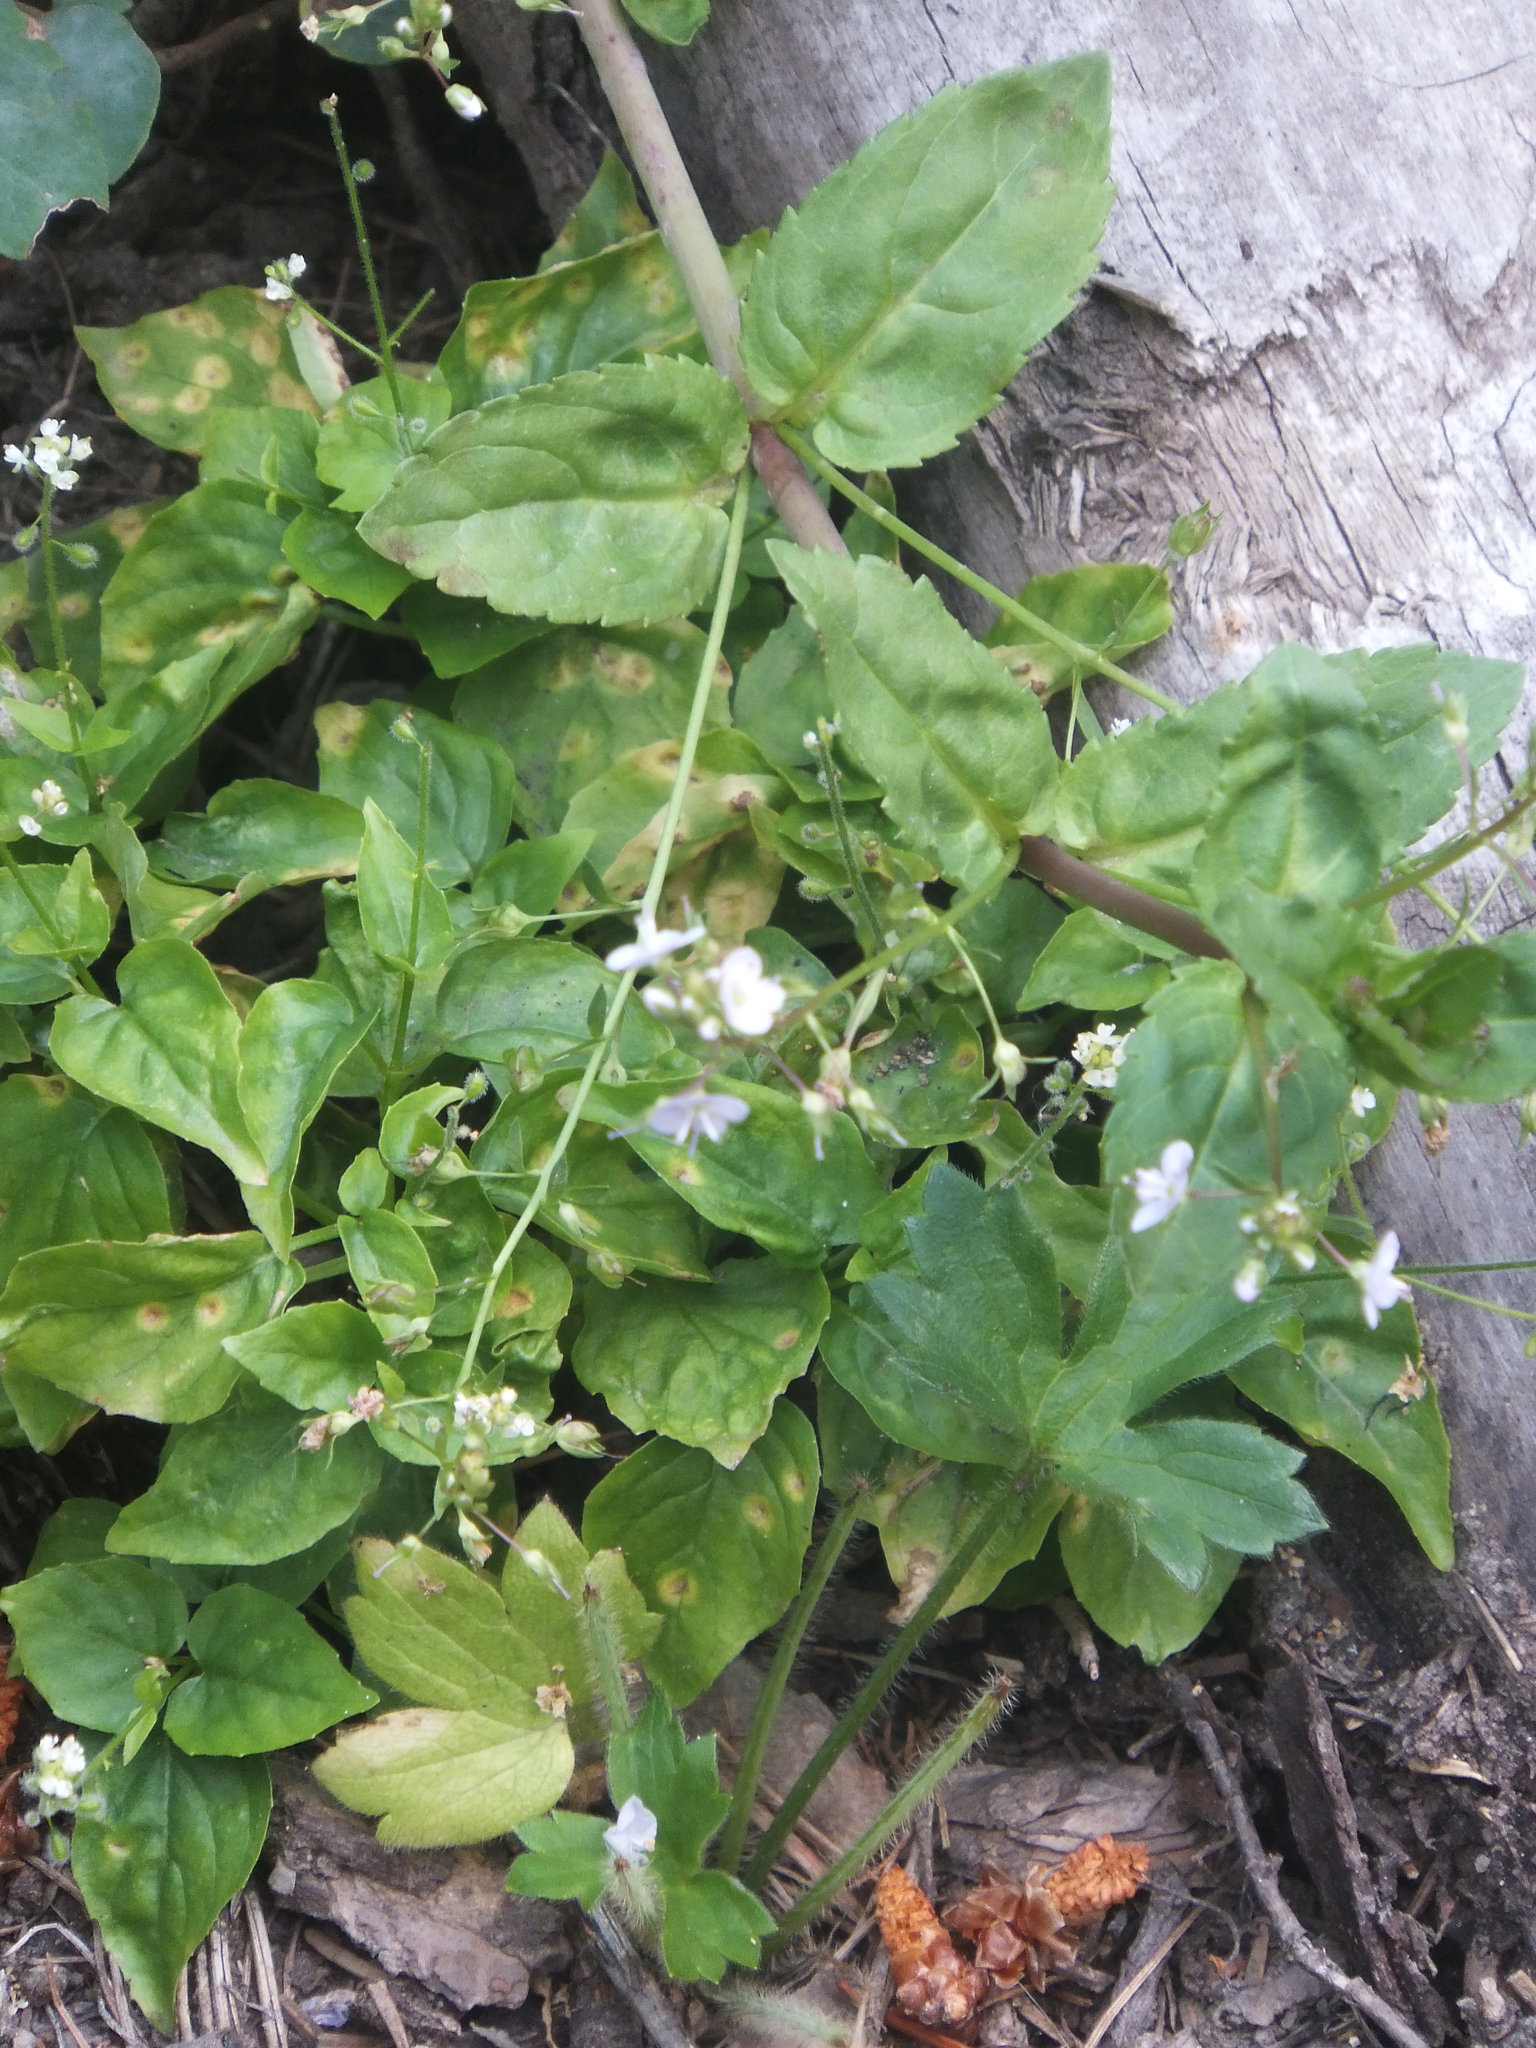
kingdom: Plantae
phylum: Tracheophyta
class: Magnoliopsida
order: Lamiales
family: Plantaginaceae
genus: Veronica
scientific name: Veronica anagallis-aquatica
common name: Water speedwell
